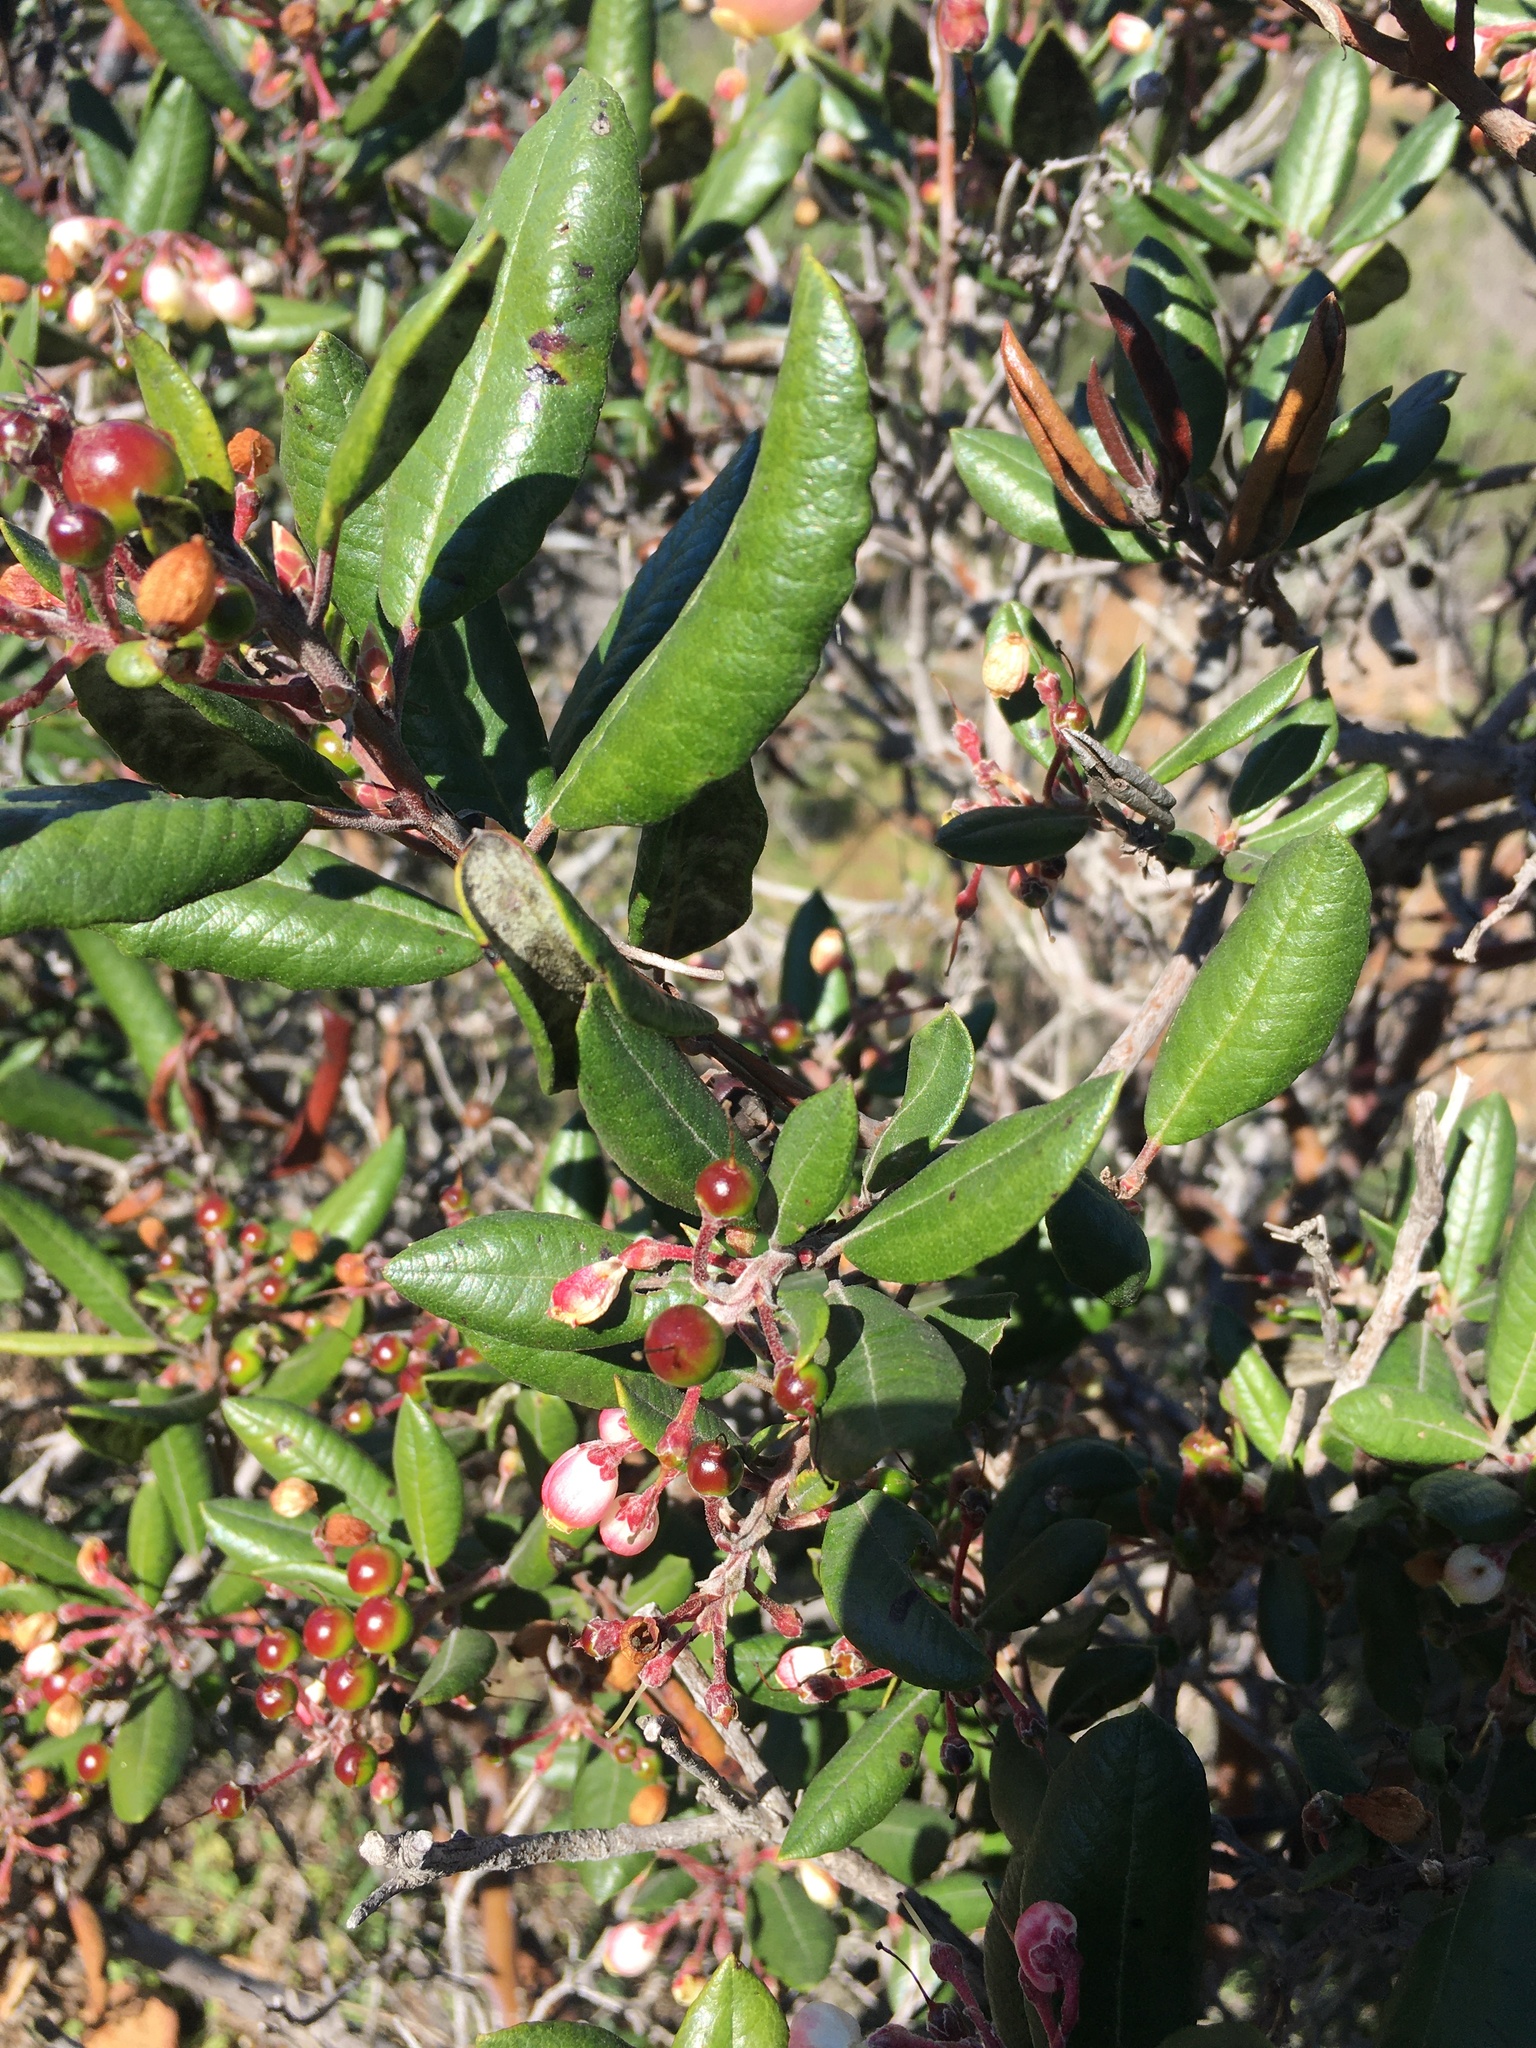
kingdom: Plantae
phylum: Tracheophyta
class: Magnoliopsida
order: Ericales
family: Ericaceae
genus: Arctostaphylos
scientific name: Arctostaphylos bicolor
